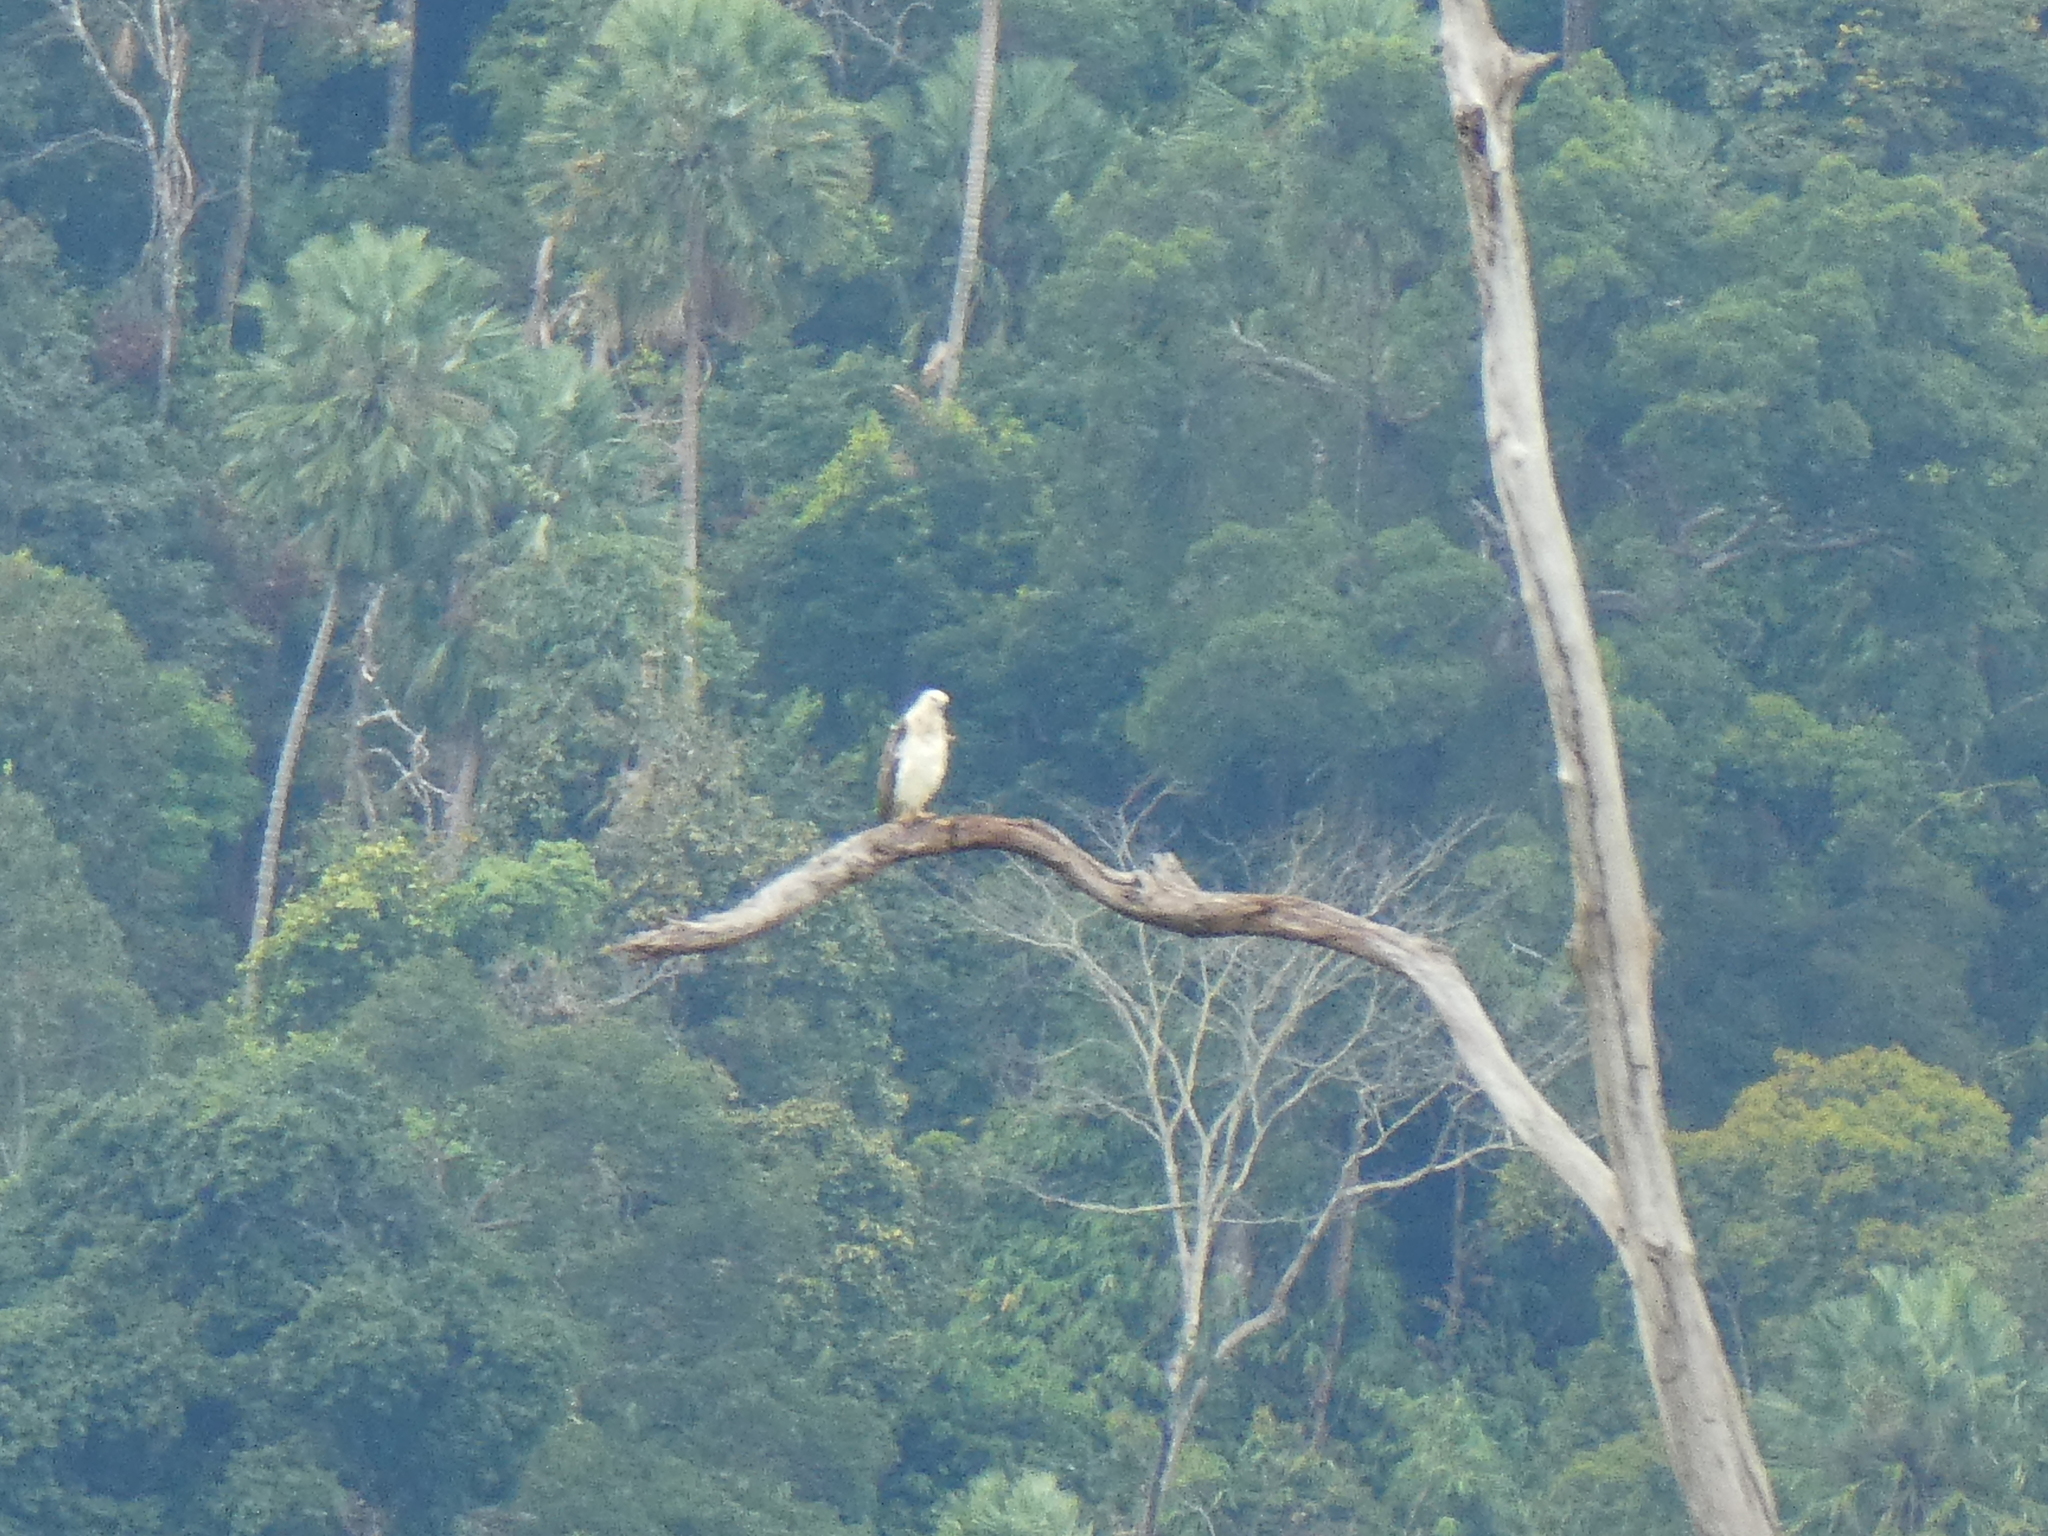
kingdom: Animalia
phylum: Chordata
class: Aves
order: Accipitriformes
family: Accipitridae
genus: Haliaeetus
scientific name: Haliaeetus leucogaster
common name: White-bellied sea eagle
